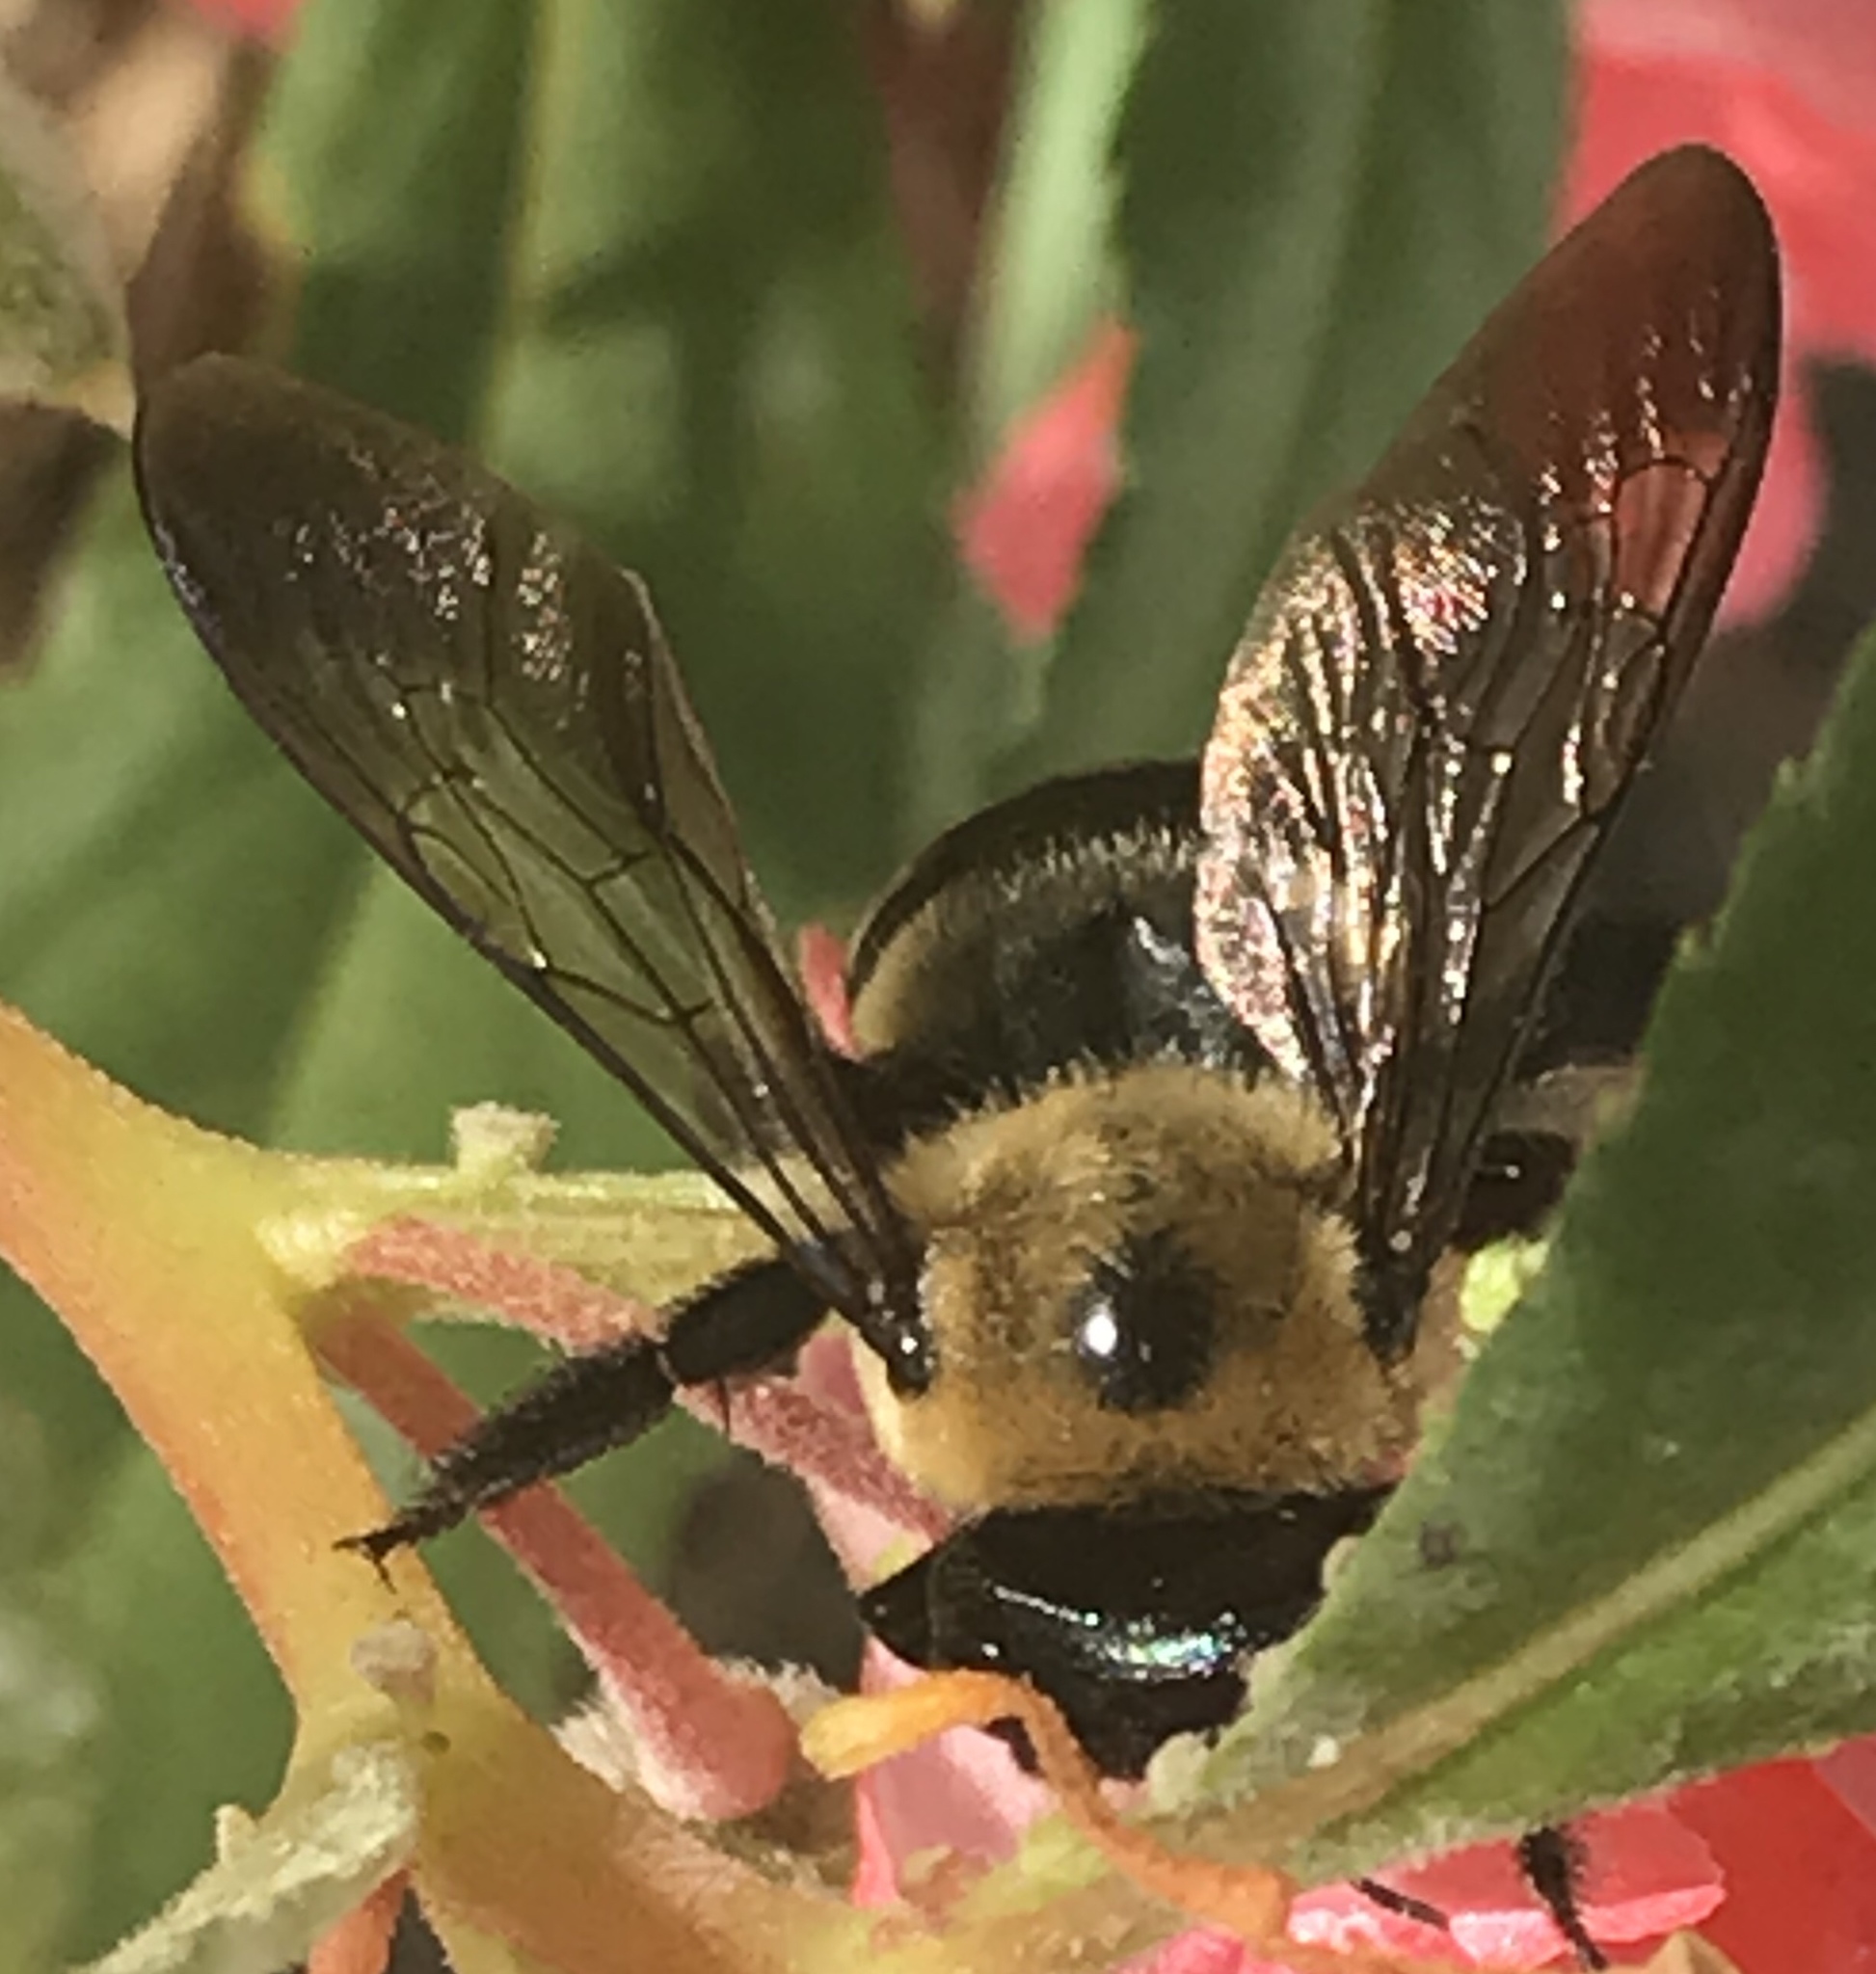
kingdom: Animalia
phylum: Arthropoda
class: Insecta
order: Hymenoptera
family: Apidae
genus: Xylocopa
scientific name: Xylocopa virginica
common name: Carpenter bee
